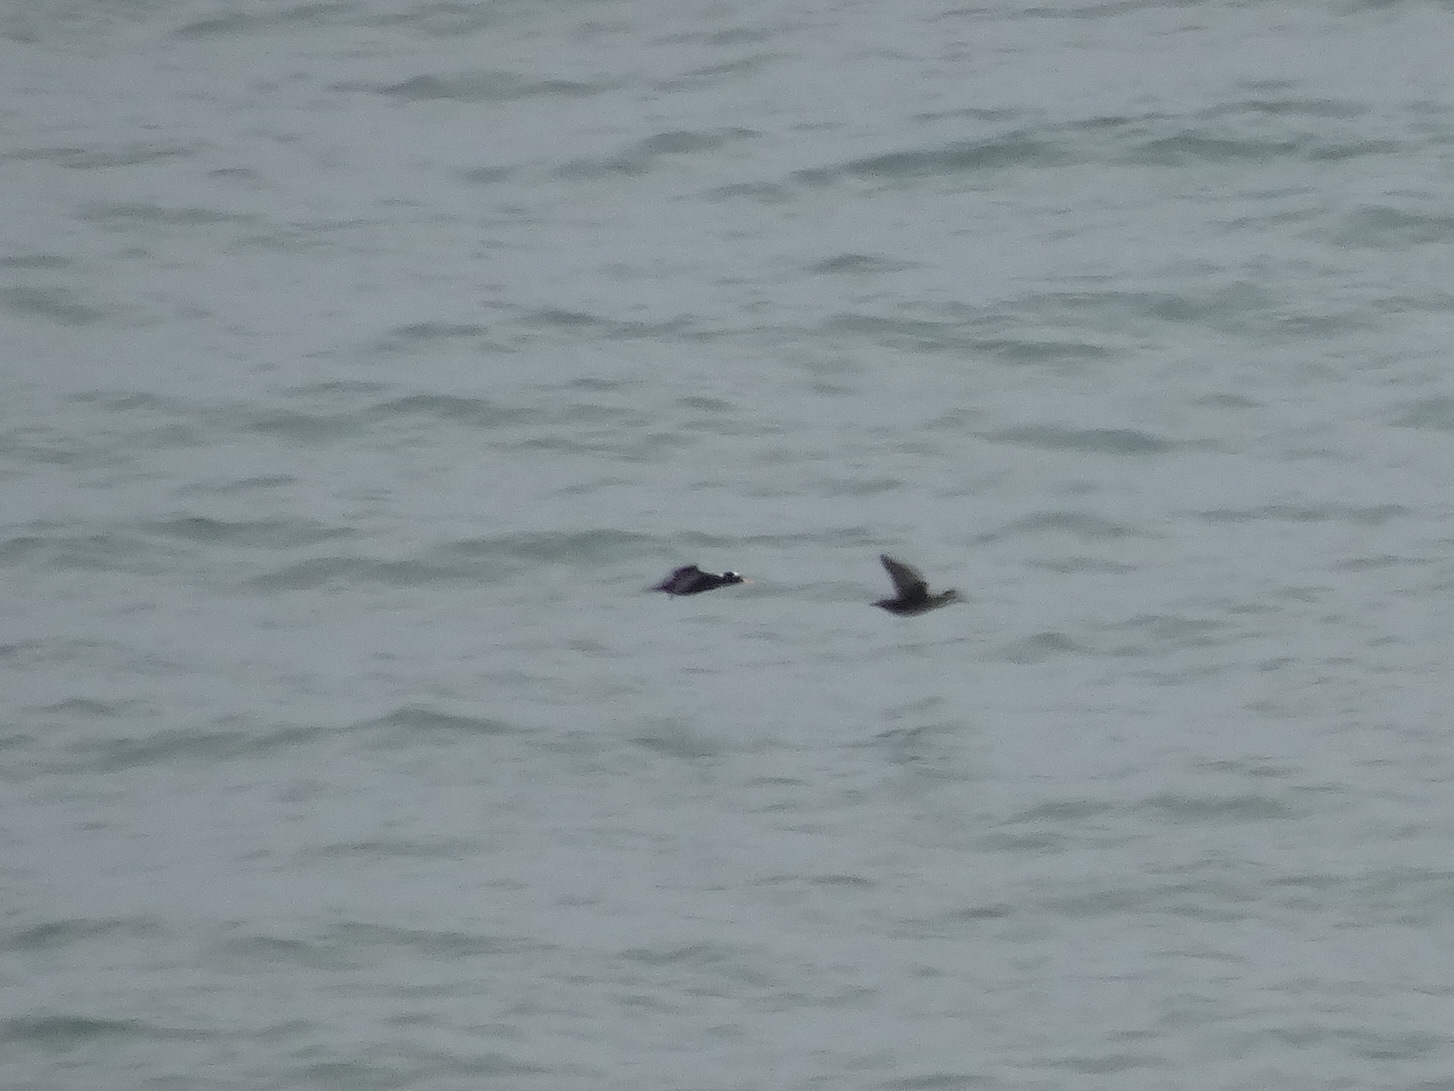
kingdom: Animalia
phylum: Chordata
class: Aves
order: Anseriformes
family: Anatidae
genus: Melanitta
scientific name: Melanitta perspicillata
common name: Surf scoter
